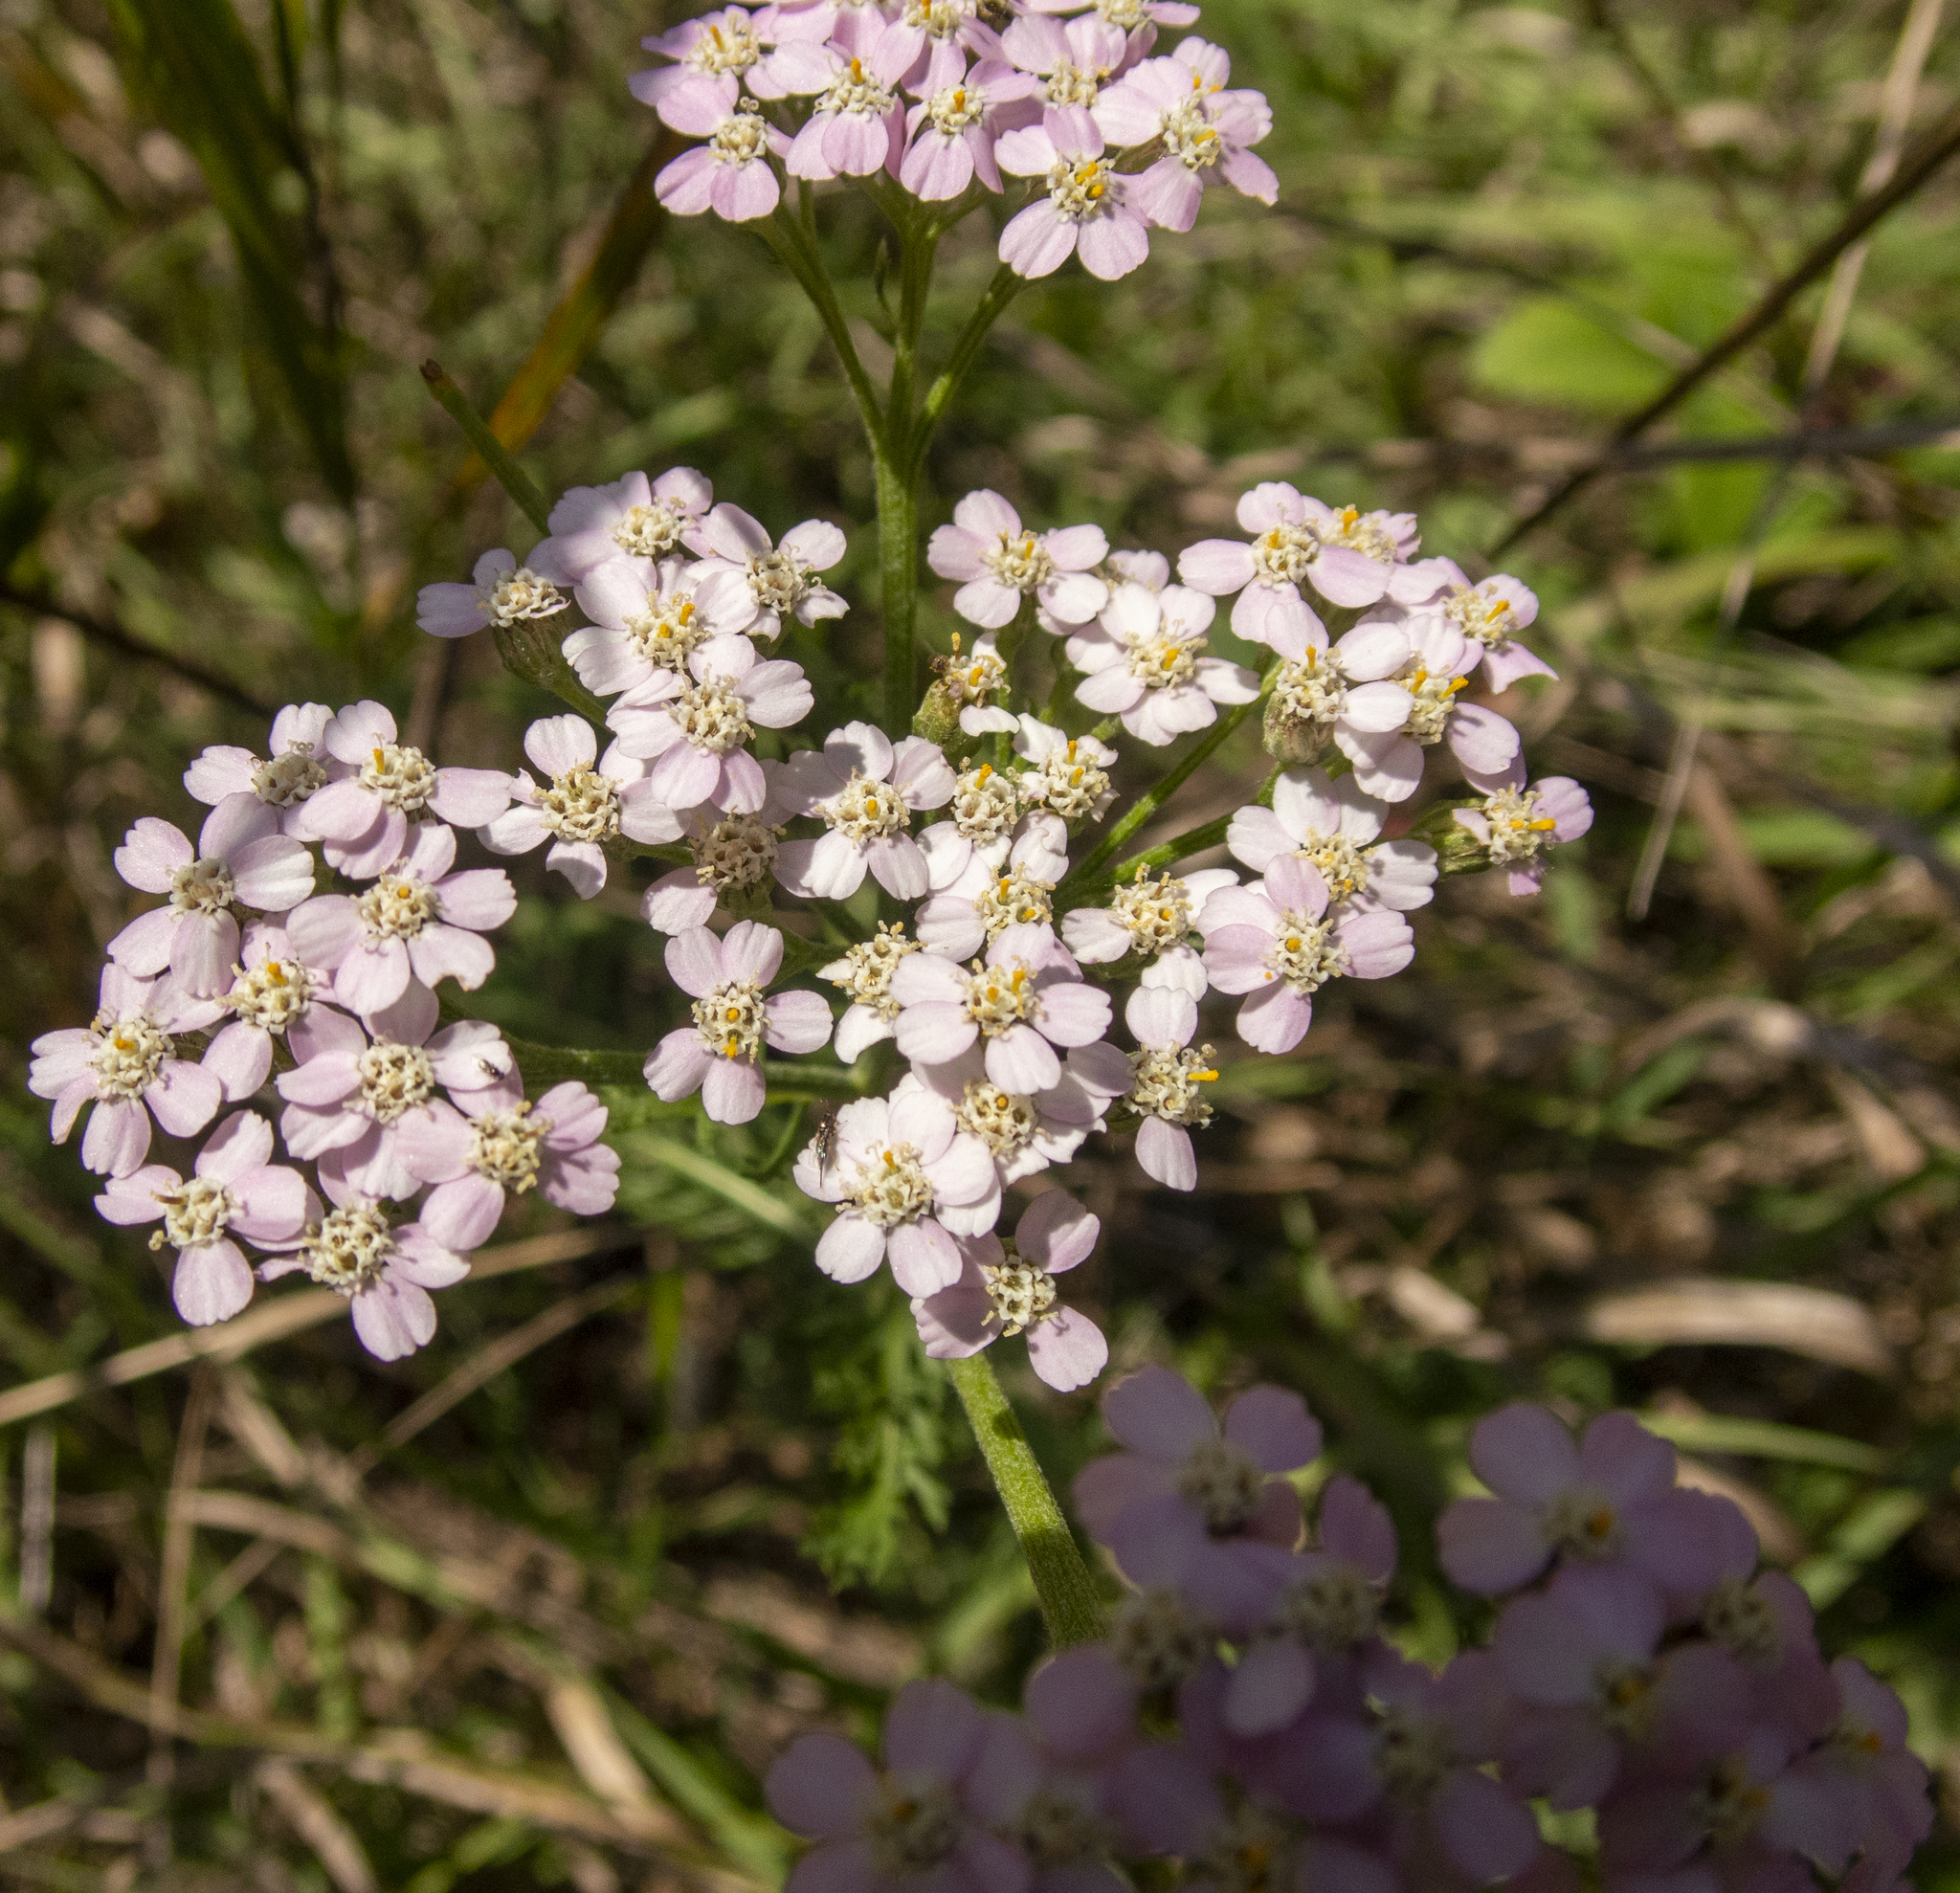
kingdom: Plantae
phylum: Tracheophyta
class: Magnoliopsida
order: Asterales
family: Asteraceae
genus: Achillea
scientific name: Achillea millefolium
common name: Yarrow
